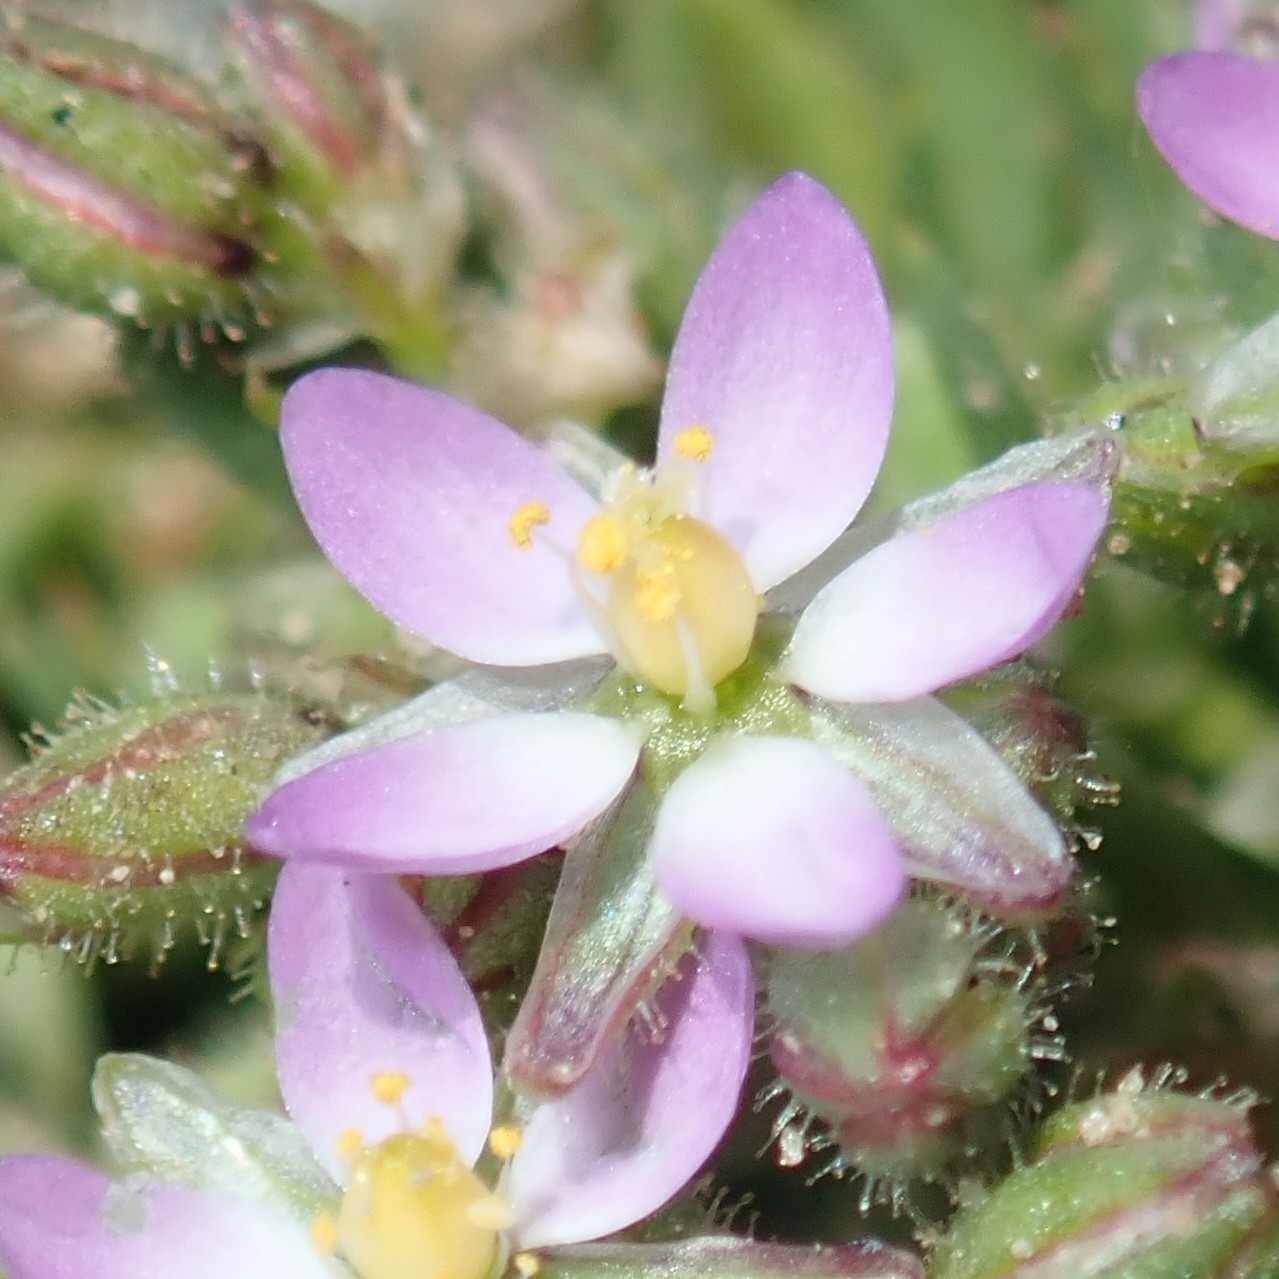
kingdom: Plantae
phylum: Tracheophyta
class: Magnoliopsida
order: Caryophyllales
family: Caryophyllaceae
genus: Spergularia
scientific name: Spergularia marina
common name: Lesser sea-spurrey
